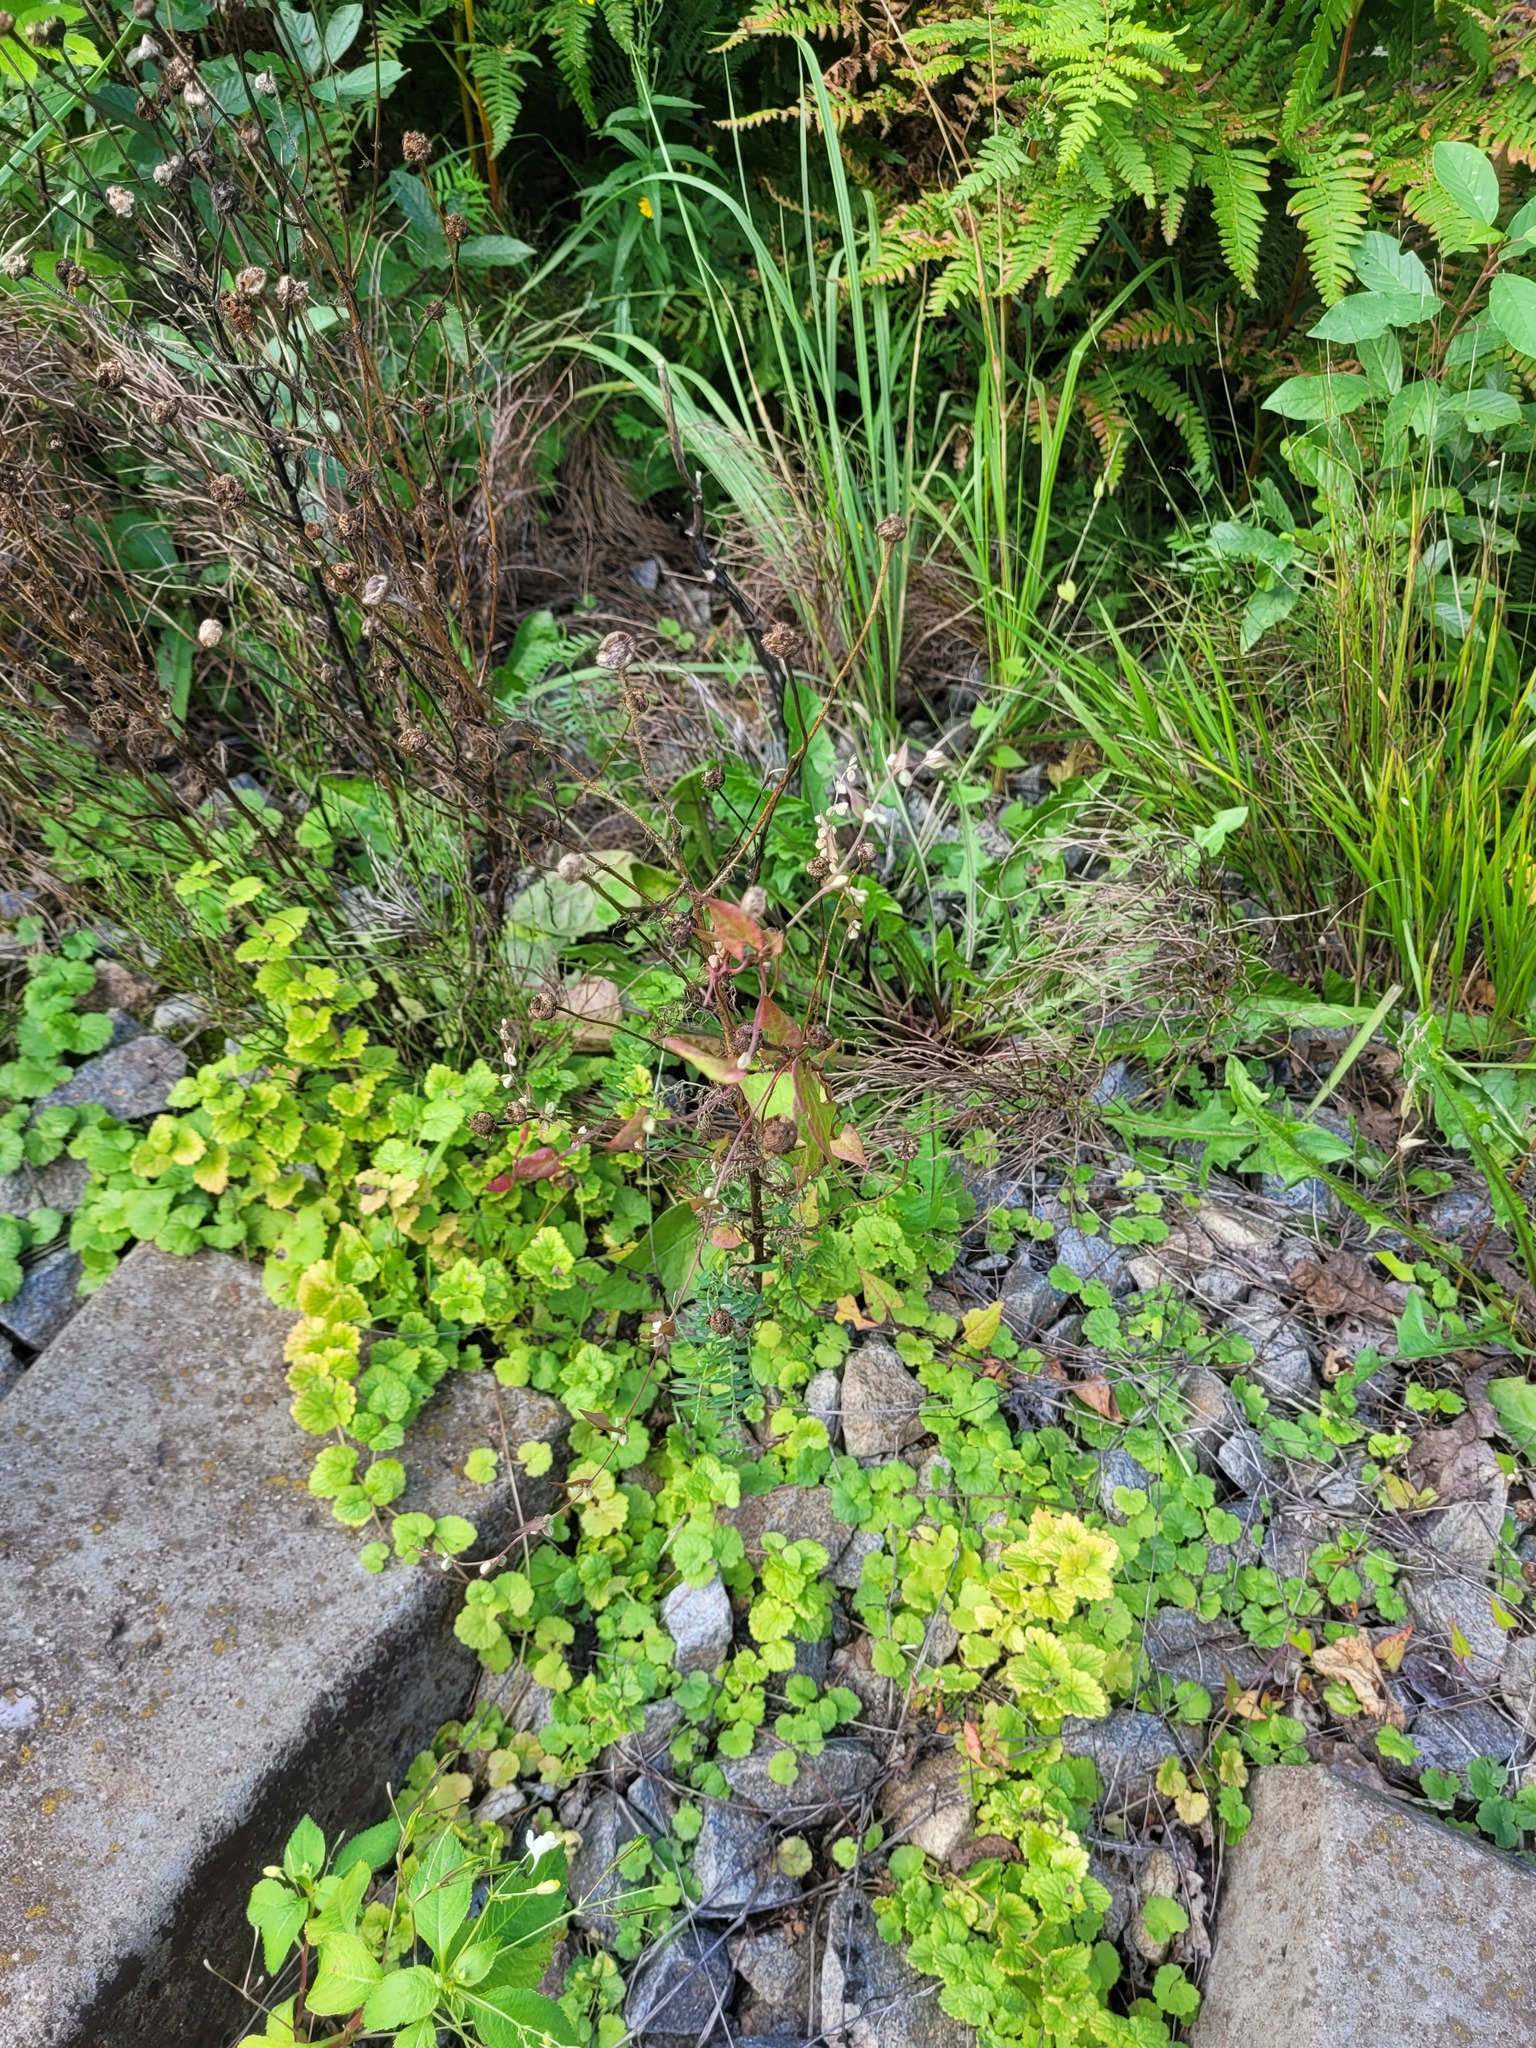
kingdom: Plantae
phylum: Tracheophyta
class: Magnoliopsida
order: Caryophyllales
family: Polygonaceae
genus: Fallopia
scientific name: Fallopia convolvulus
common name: Black bindweed
